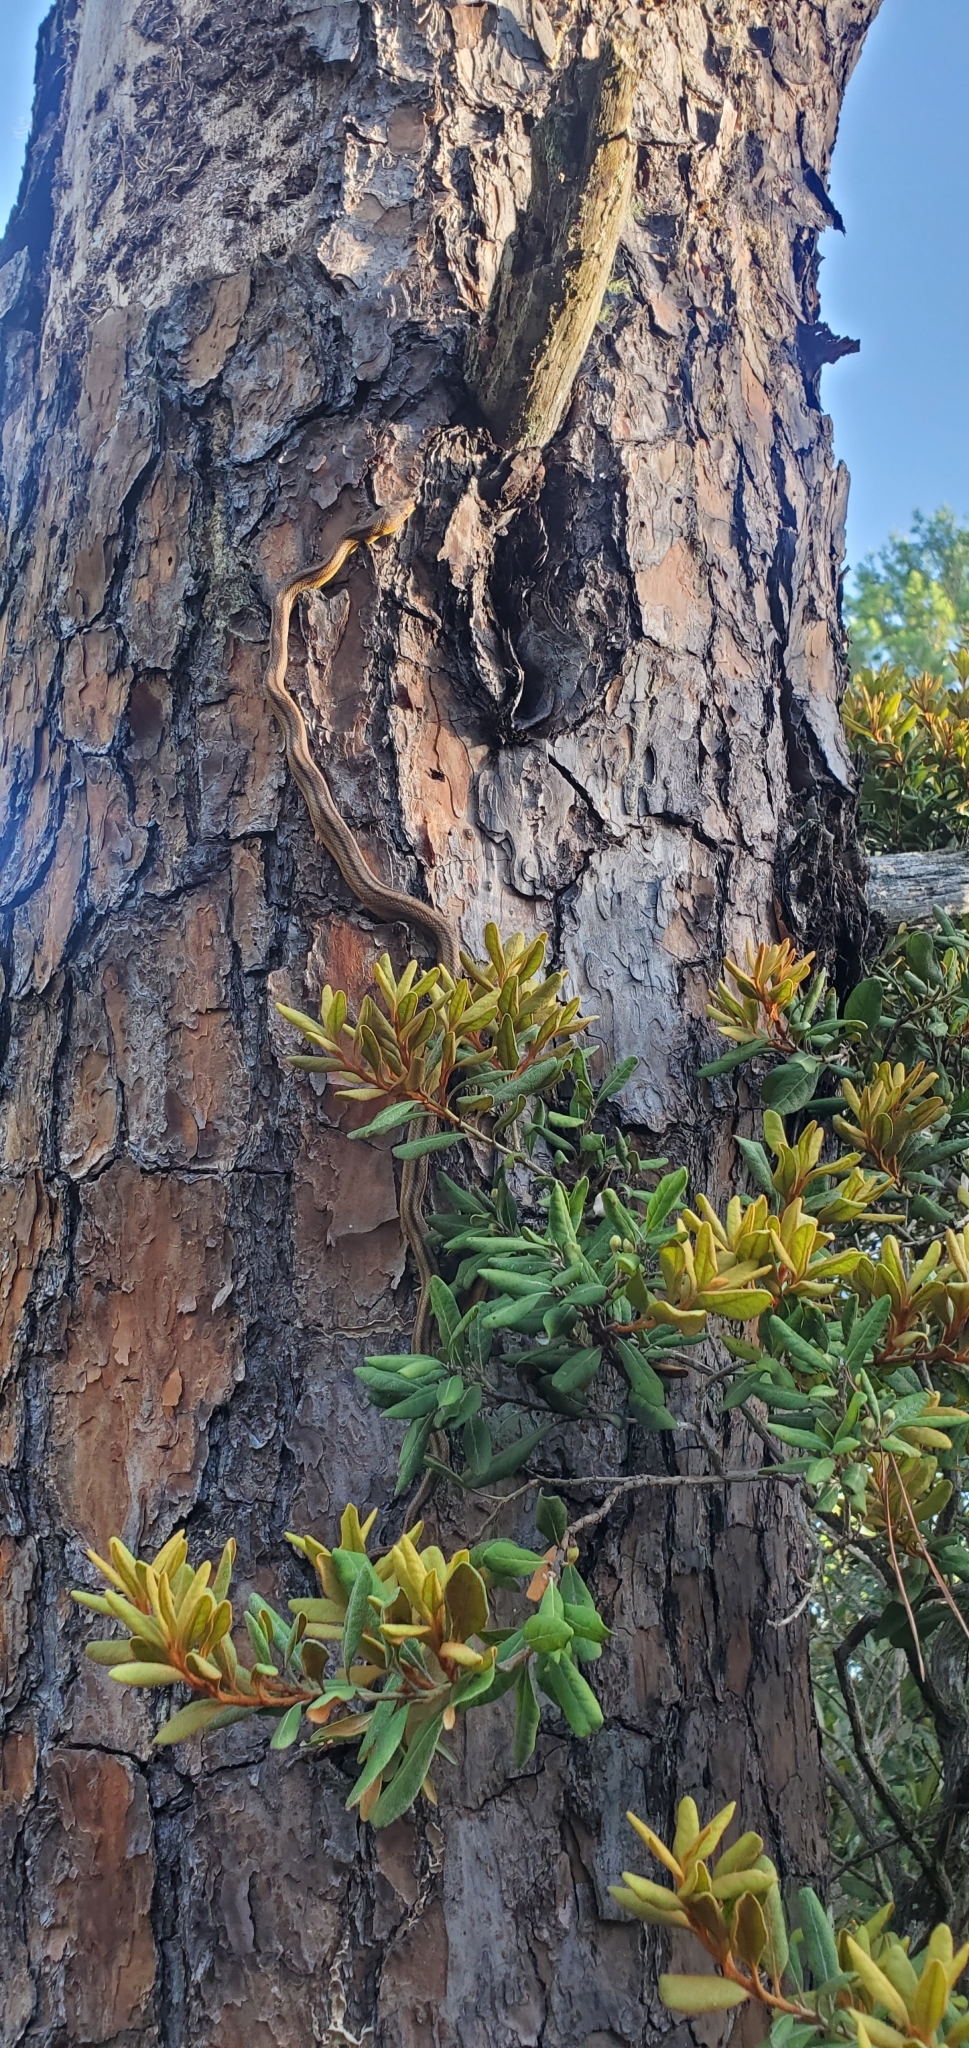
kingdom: Animalia
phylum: Chordata
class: Squamata
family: Colubridae
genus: Pantherophis
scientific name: Pantherophis alleghaniensis
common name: Eastern rat snake
